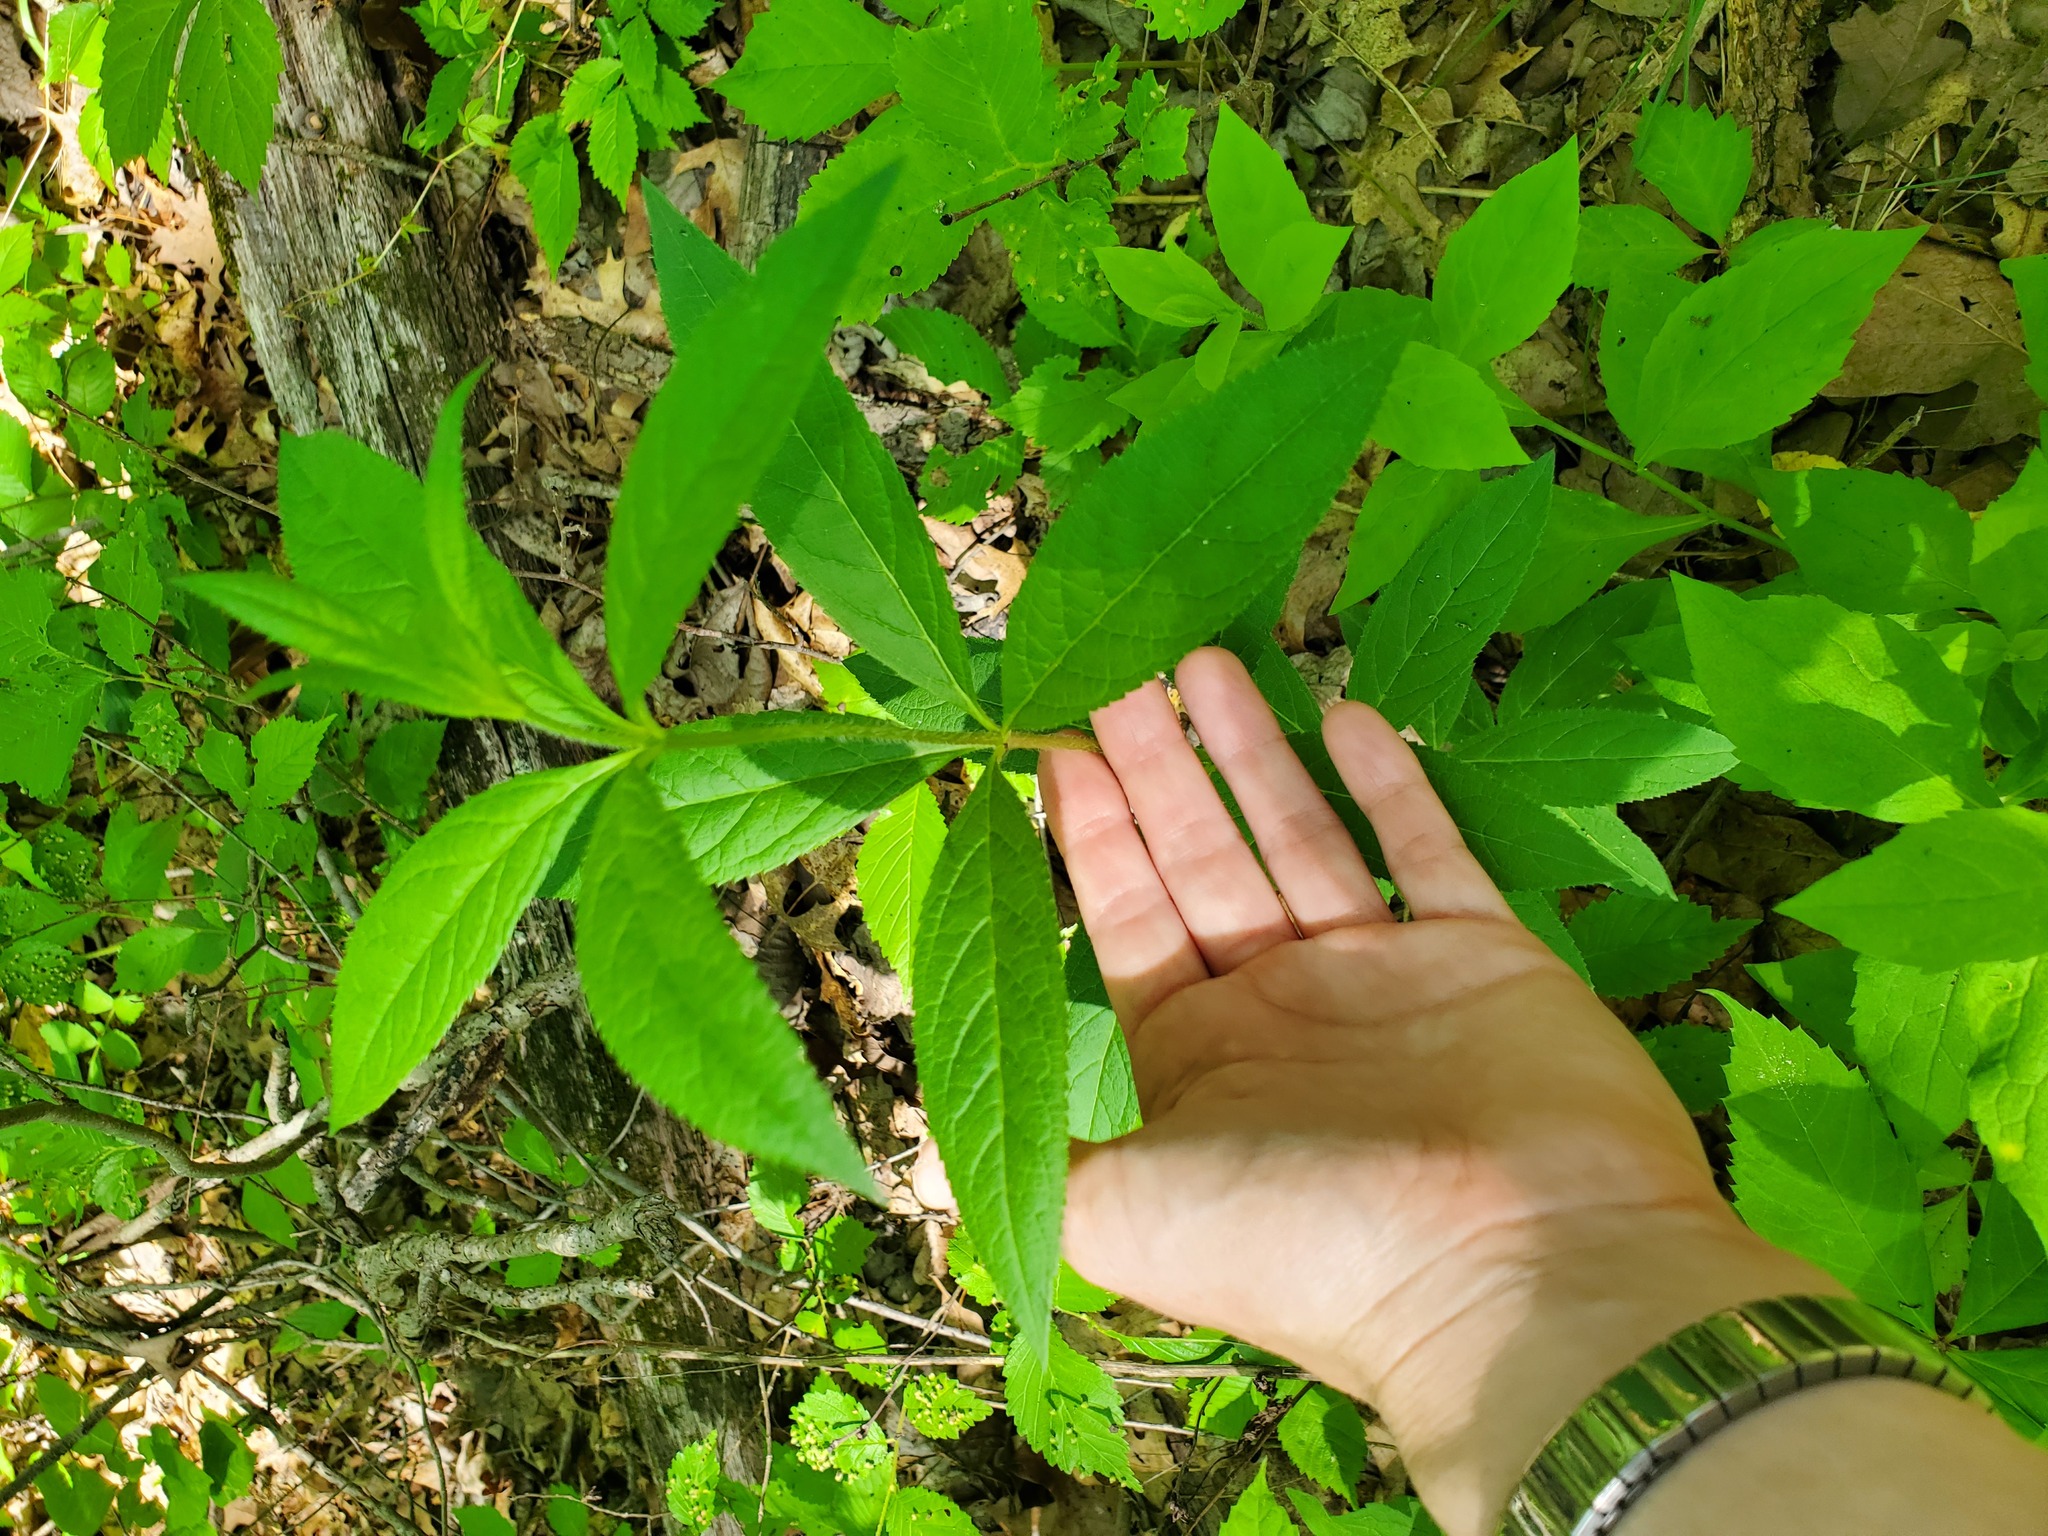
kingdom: Plantae
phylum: Tracheophyta
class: Magnoliopsida
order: Lamiales
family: Plantaginaceae
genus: Veronicastrum
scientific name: Veronicastrum virginicum
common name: Blackroot
